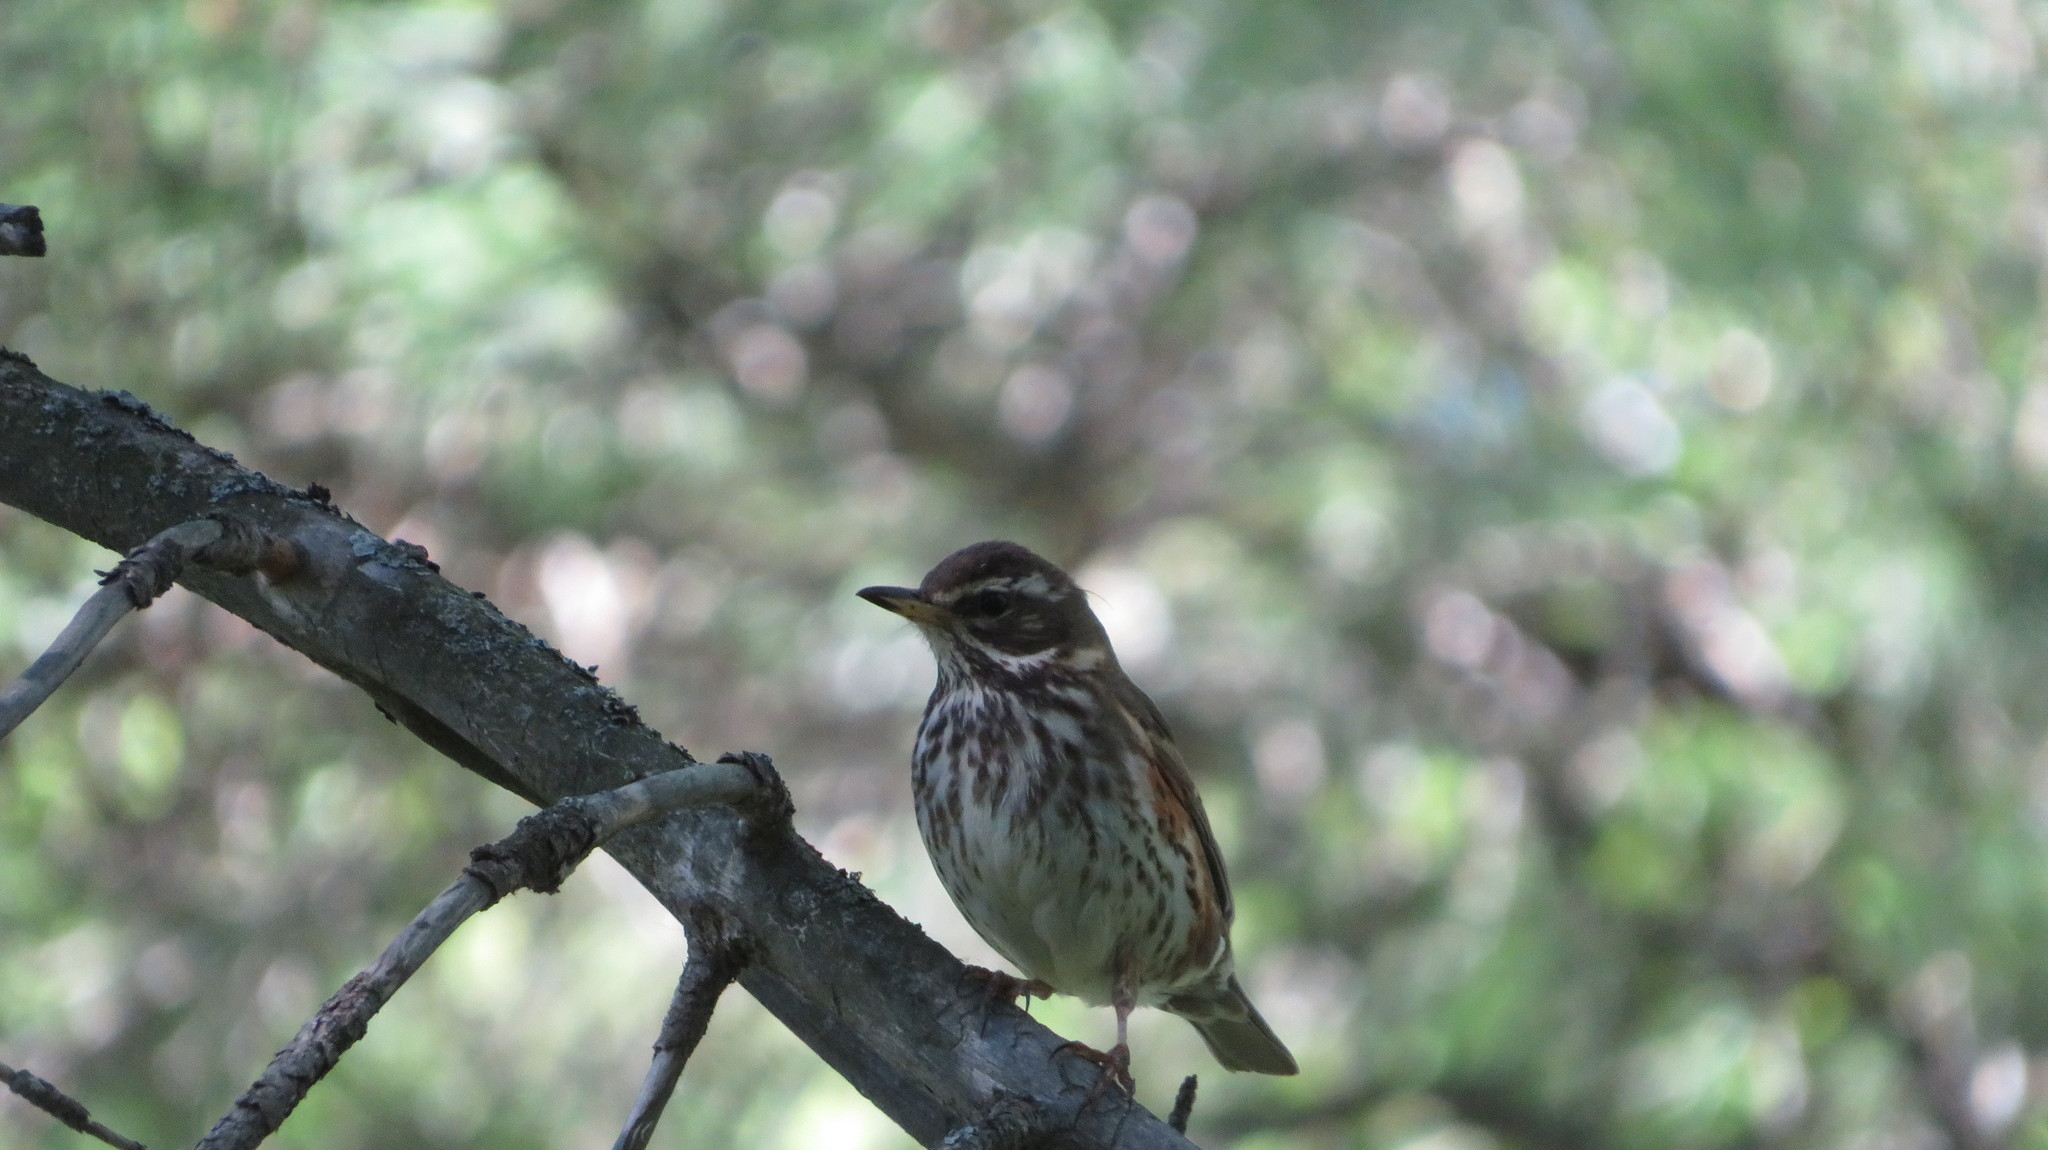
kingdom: Animalia
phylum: Chordata
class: Aves
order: Passeriformes
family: Turdidae
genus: Turdus
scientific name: Turdus iliacus
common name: Redwing
